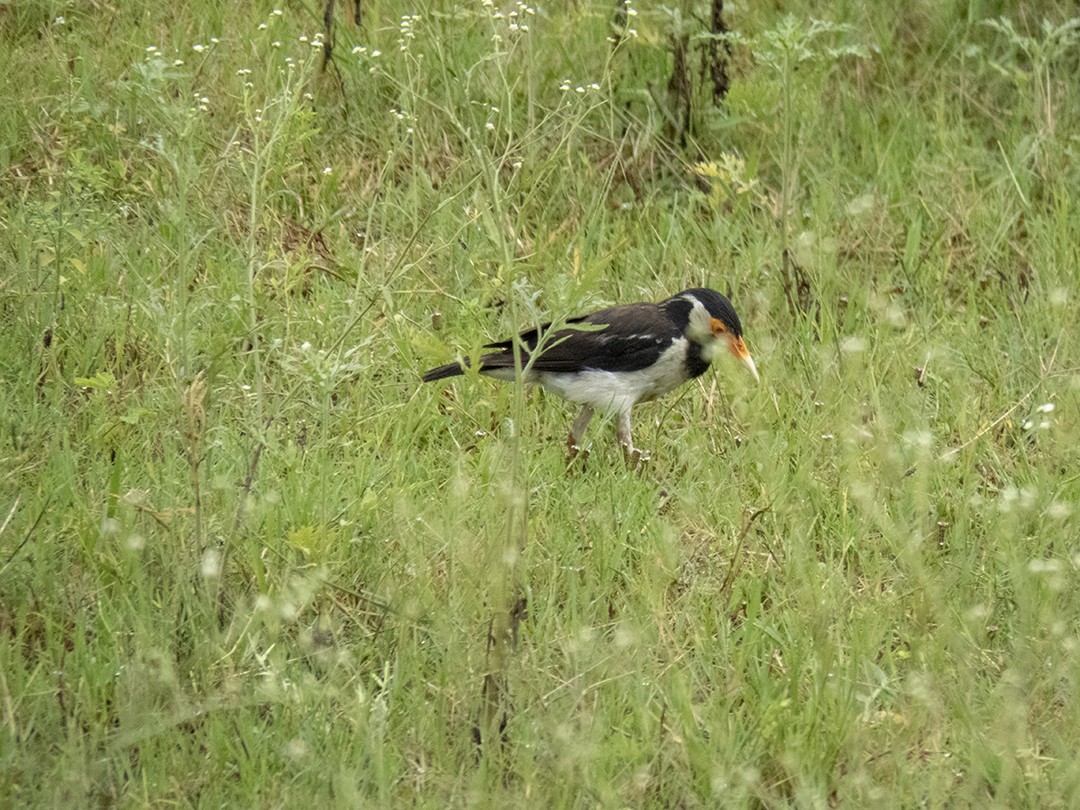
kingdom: Animalia
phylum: Chordata
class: Aves
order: Passeriformes
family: Sturnidae
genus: Gracupica
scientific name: Gracupica contra
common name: Pied myna
